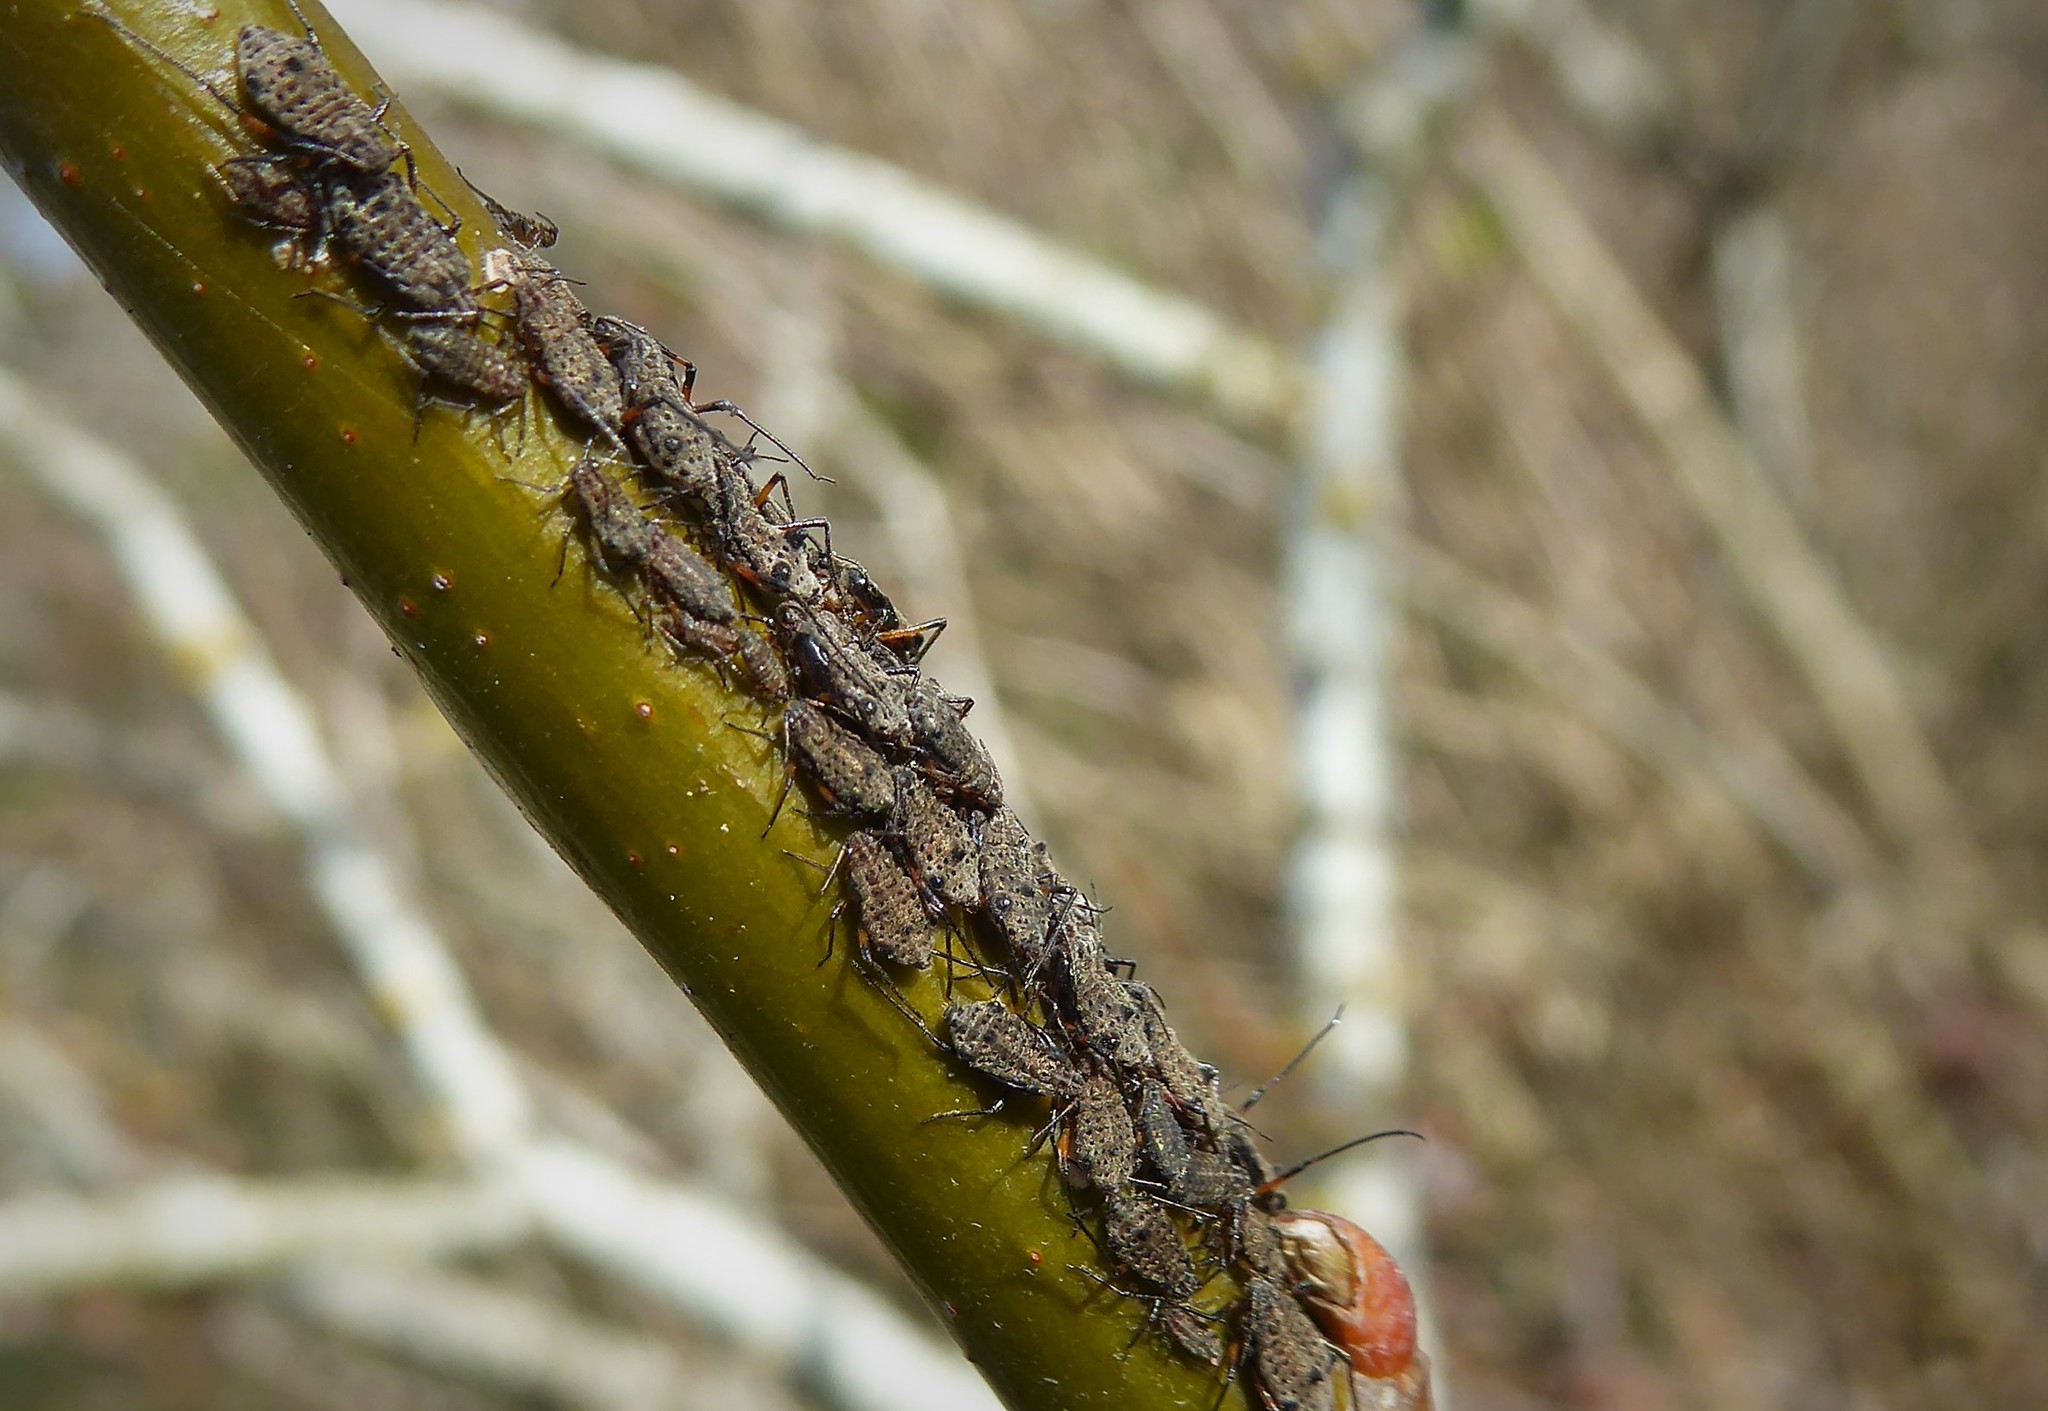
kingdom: Animalia
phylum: Arthropoda
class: Insecta
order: Hemiptera
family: Aphididae
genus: Tuberolachnus
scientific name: Tuberolachnus salignus
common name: Giant willow aphid
